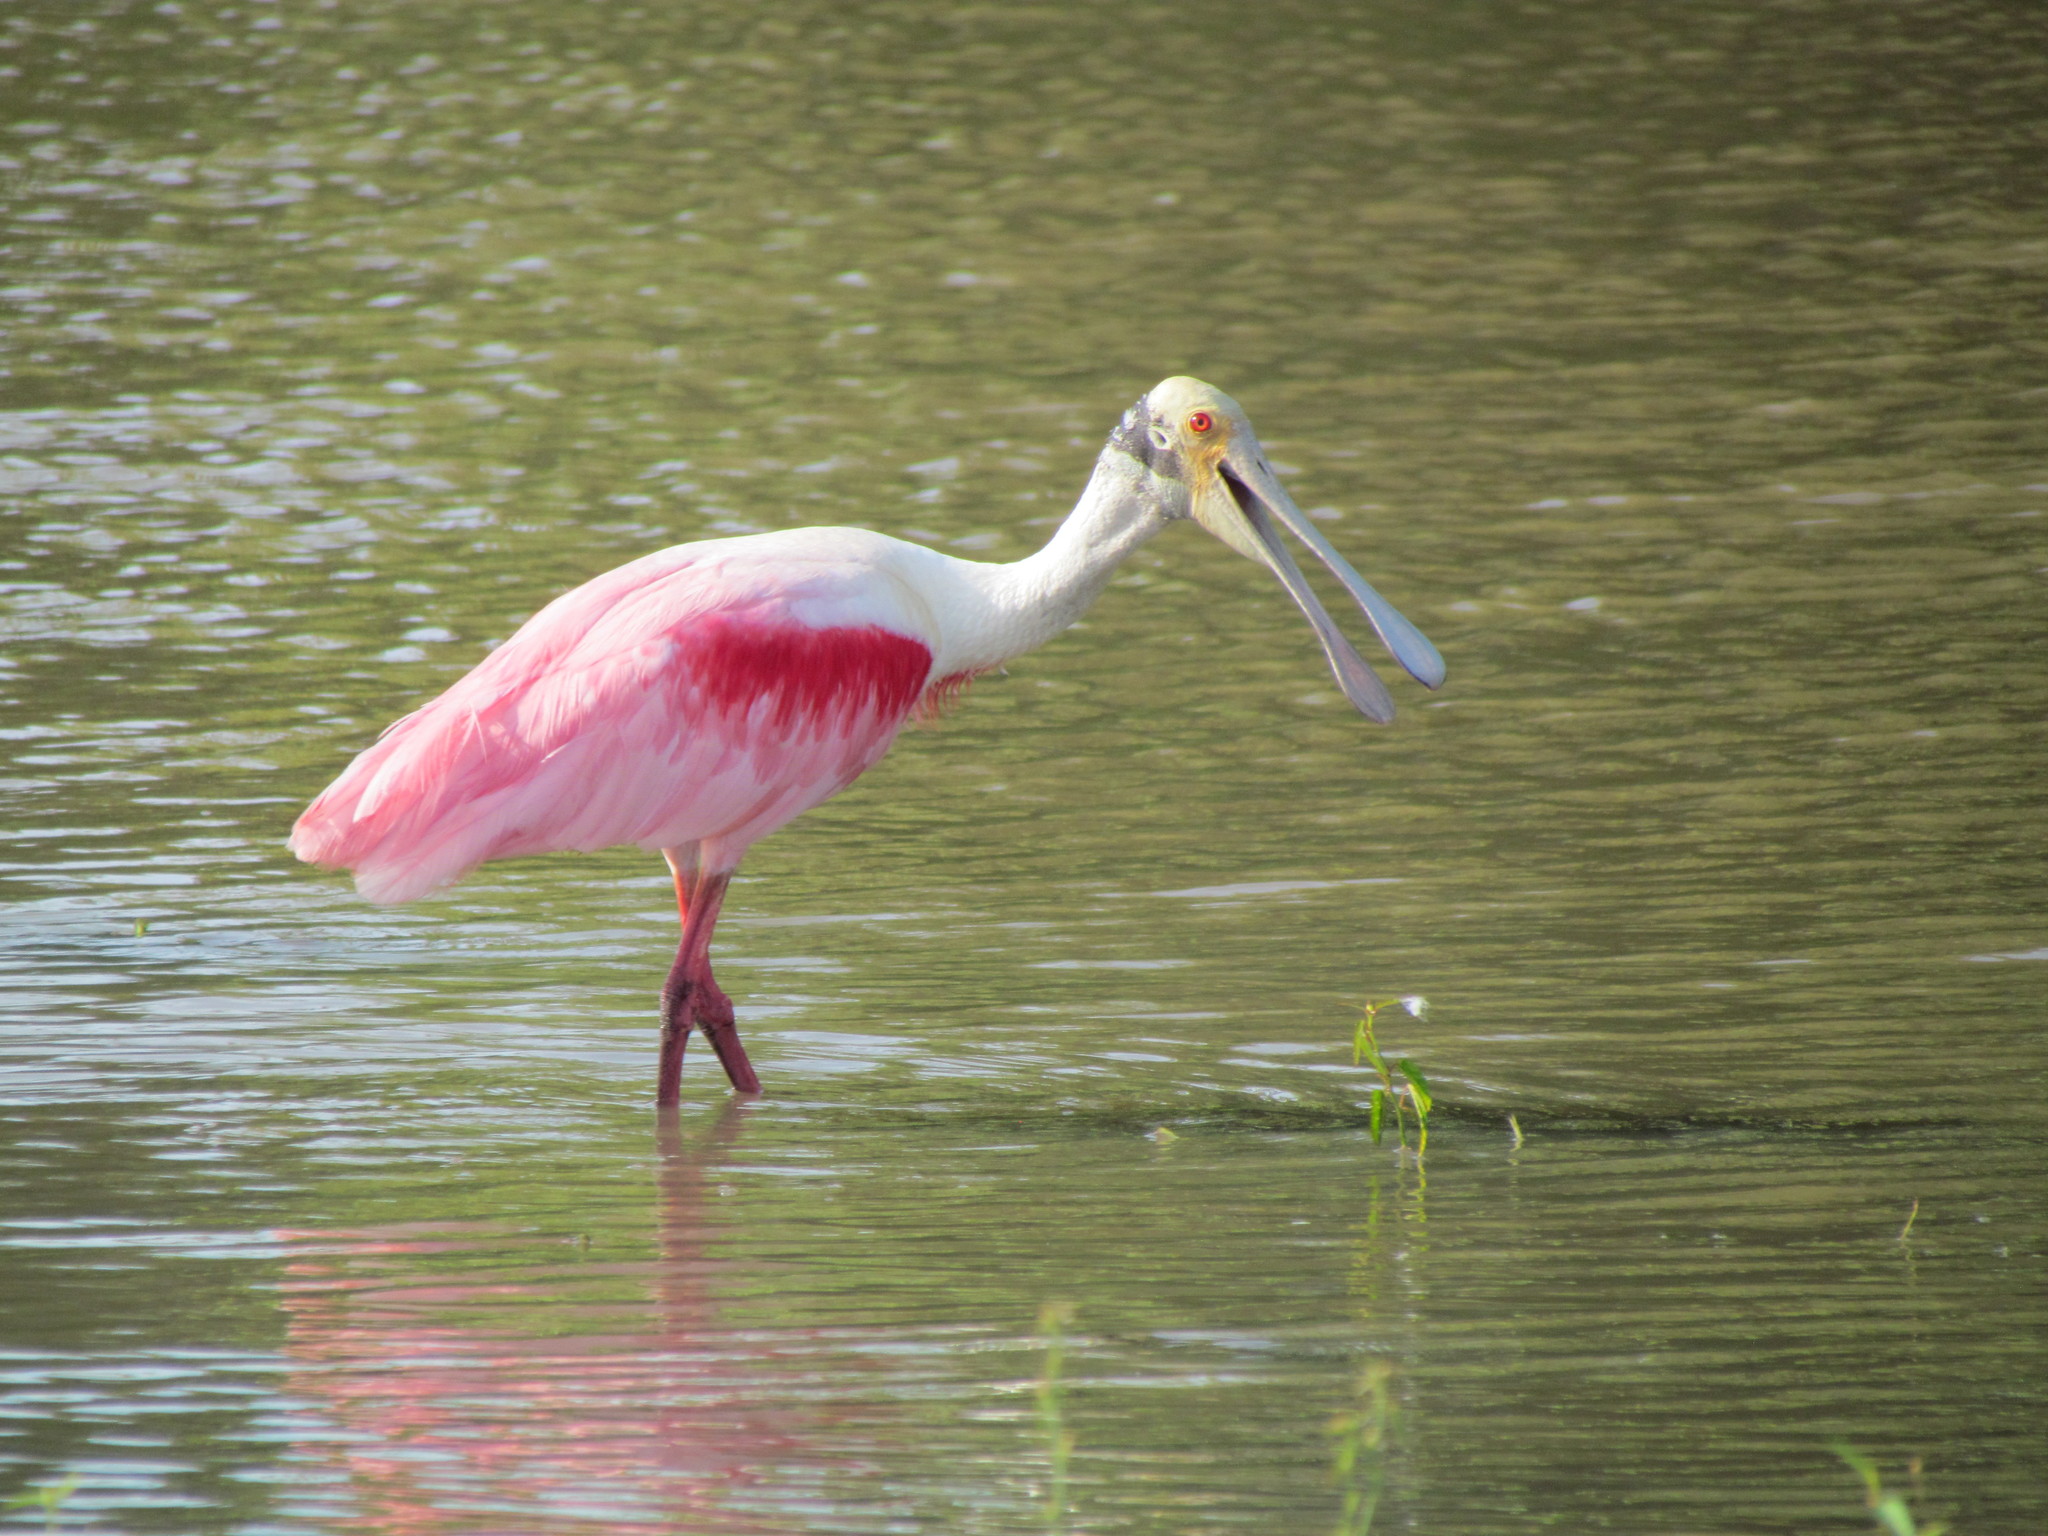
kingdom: Animalia
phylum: Chordata
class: Aves
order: Pelecaniformes
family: Threskiornithidae
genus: Platalea
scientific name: Platalea ajaja
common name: Roseate spoonbill
